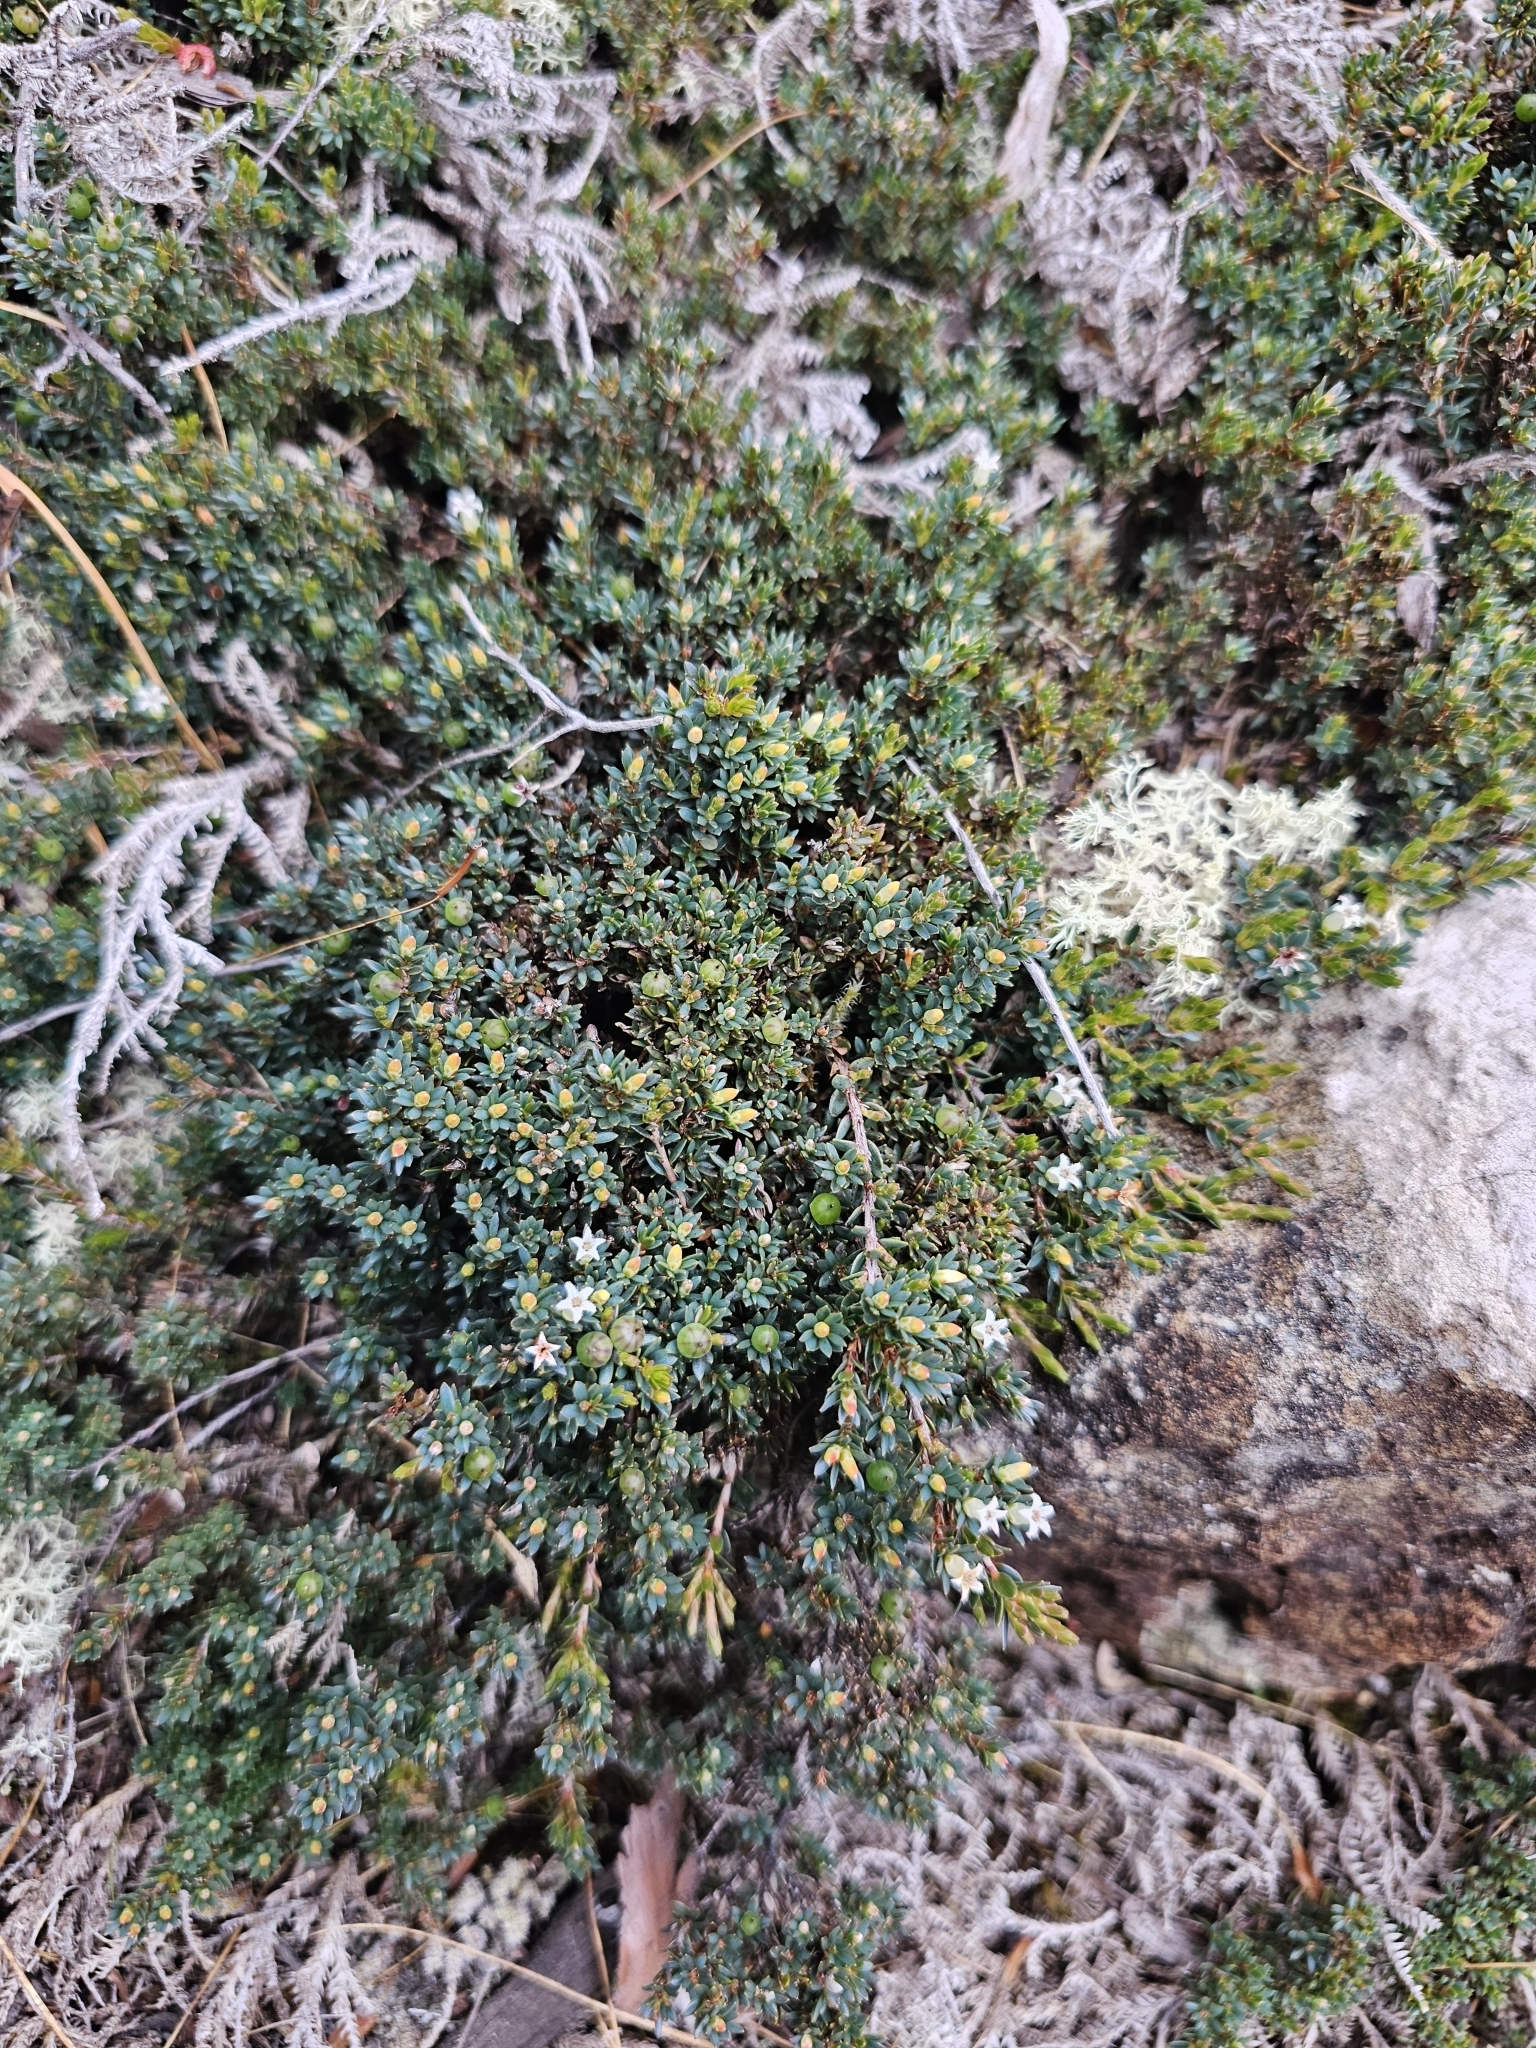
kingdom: Plantae
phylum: Tracheophyta
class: Magnoliopsida
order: Ericales
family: Ericaceae
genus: Pentachondra
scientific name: Pentachondra pumila
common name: Carpet-heath
